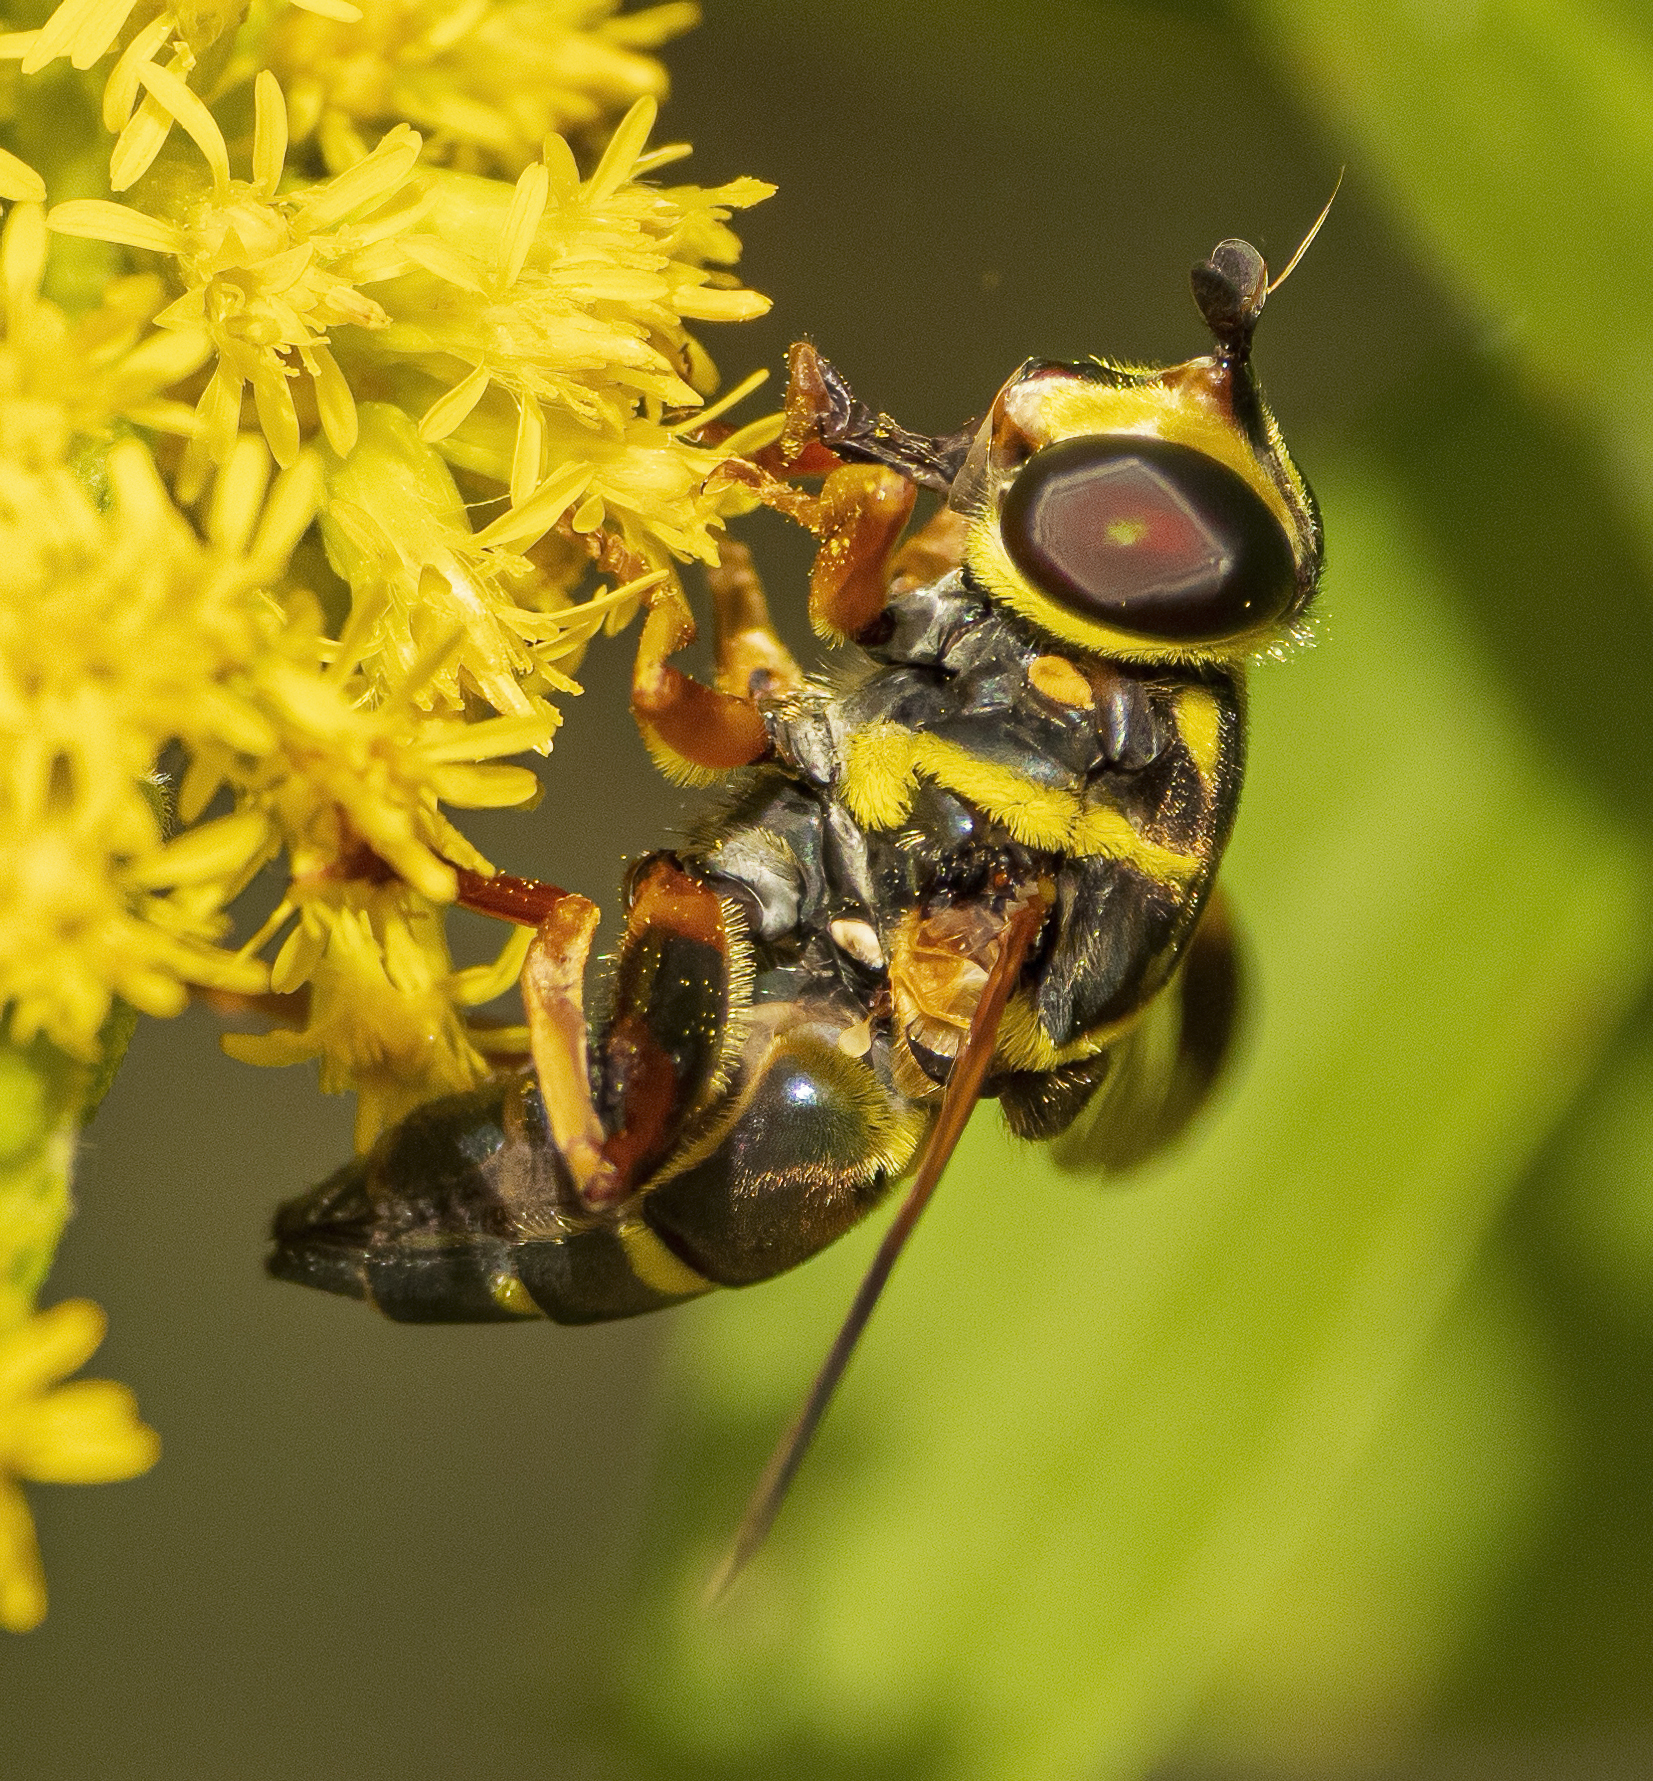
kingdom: Animalia
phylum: Arthropoda
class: Insecta
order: Diptera
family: Syrphidae
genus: Meromacrus
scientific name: Meromacrus acutus
